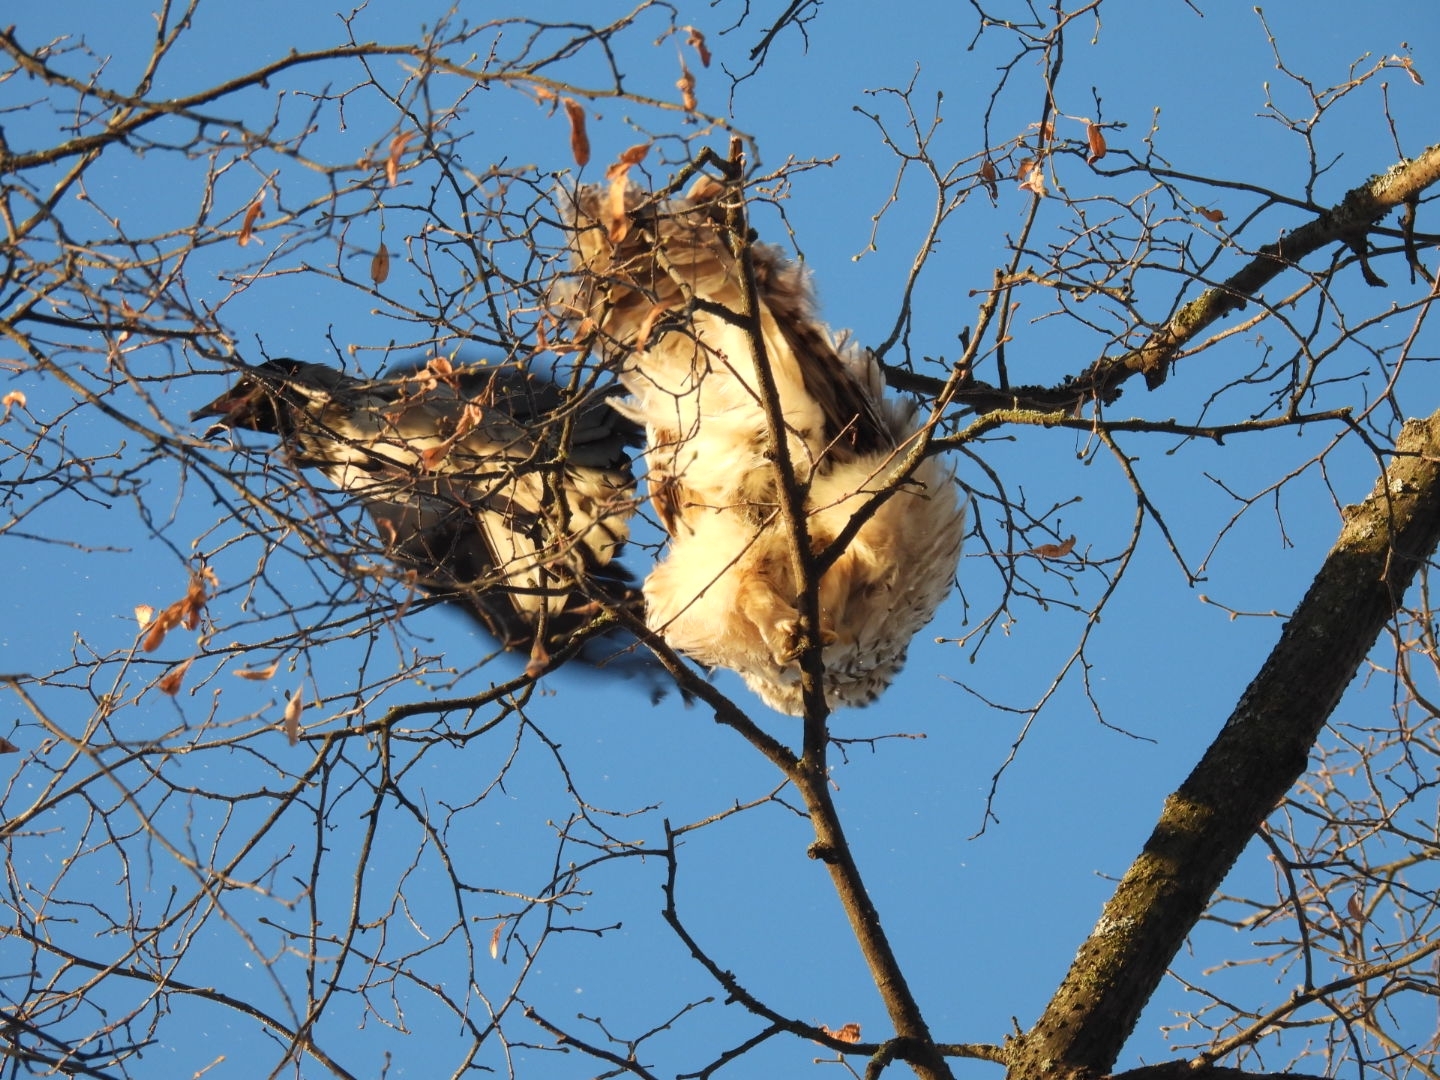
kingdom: Animalia
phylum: Chordata
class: Aves
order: Strigiformes
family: Strigidae
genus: Strix
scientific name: Strix uralensis
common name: Ural owl
